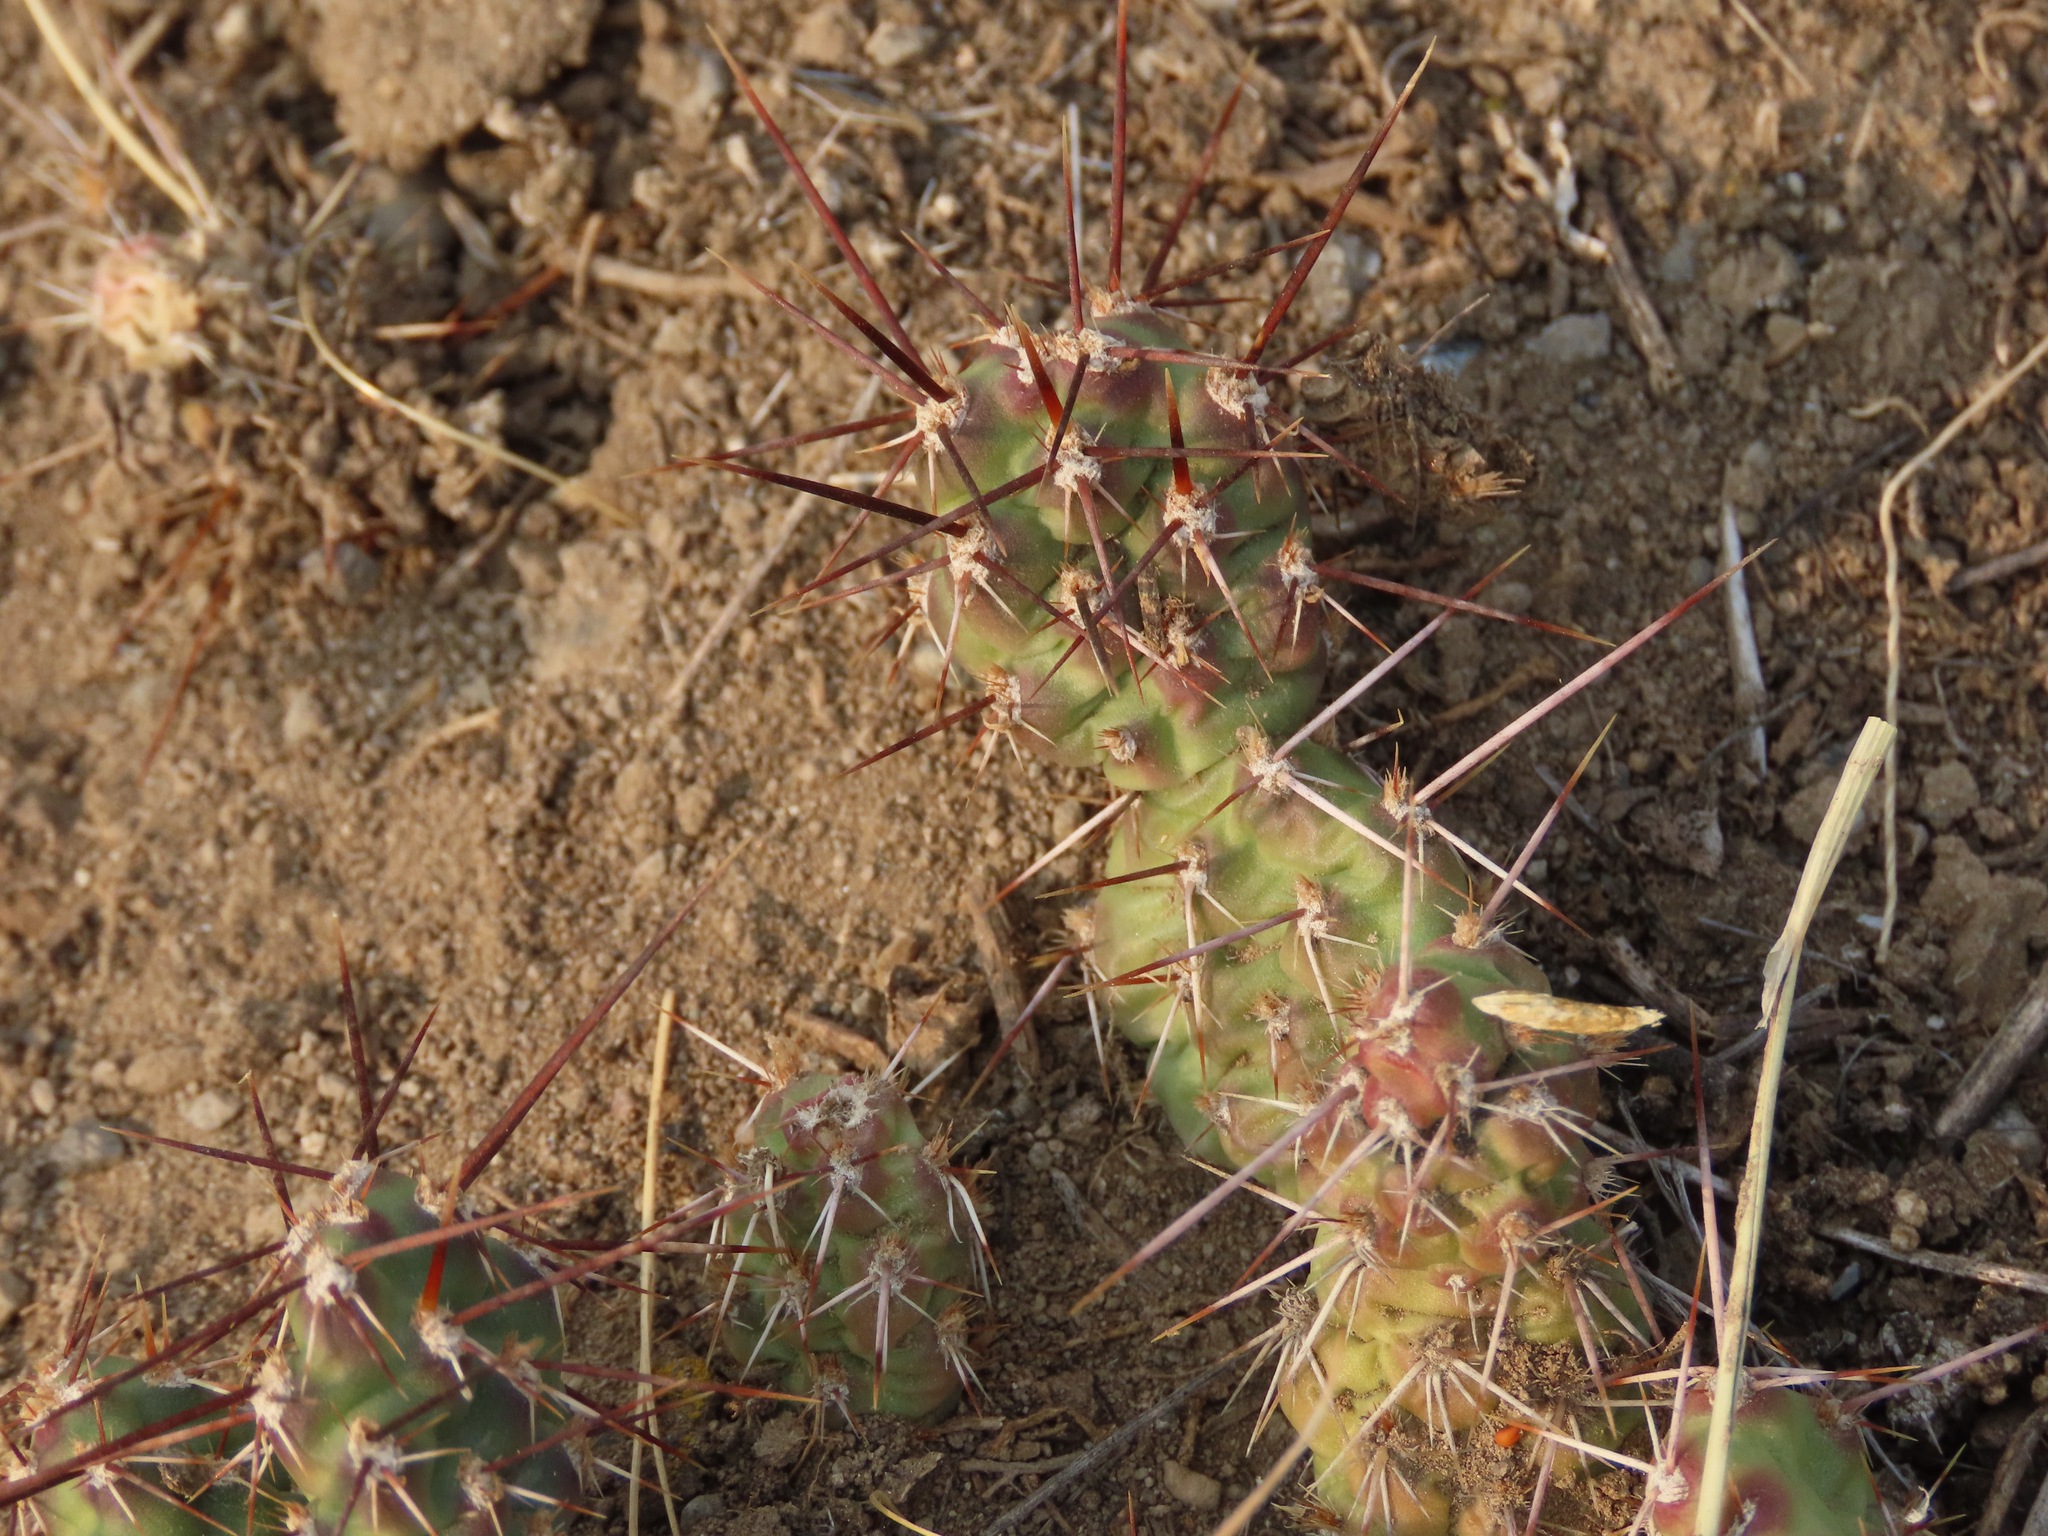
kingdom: Plantae
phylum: Tracheophyta
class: Magnoliopsida
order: Caryophyllales
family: Cactaceae
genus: Opuntia
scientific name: Opuntia fragilis
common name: Brittle cactus
